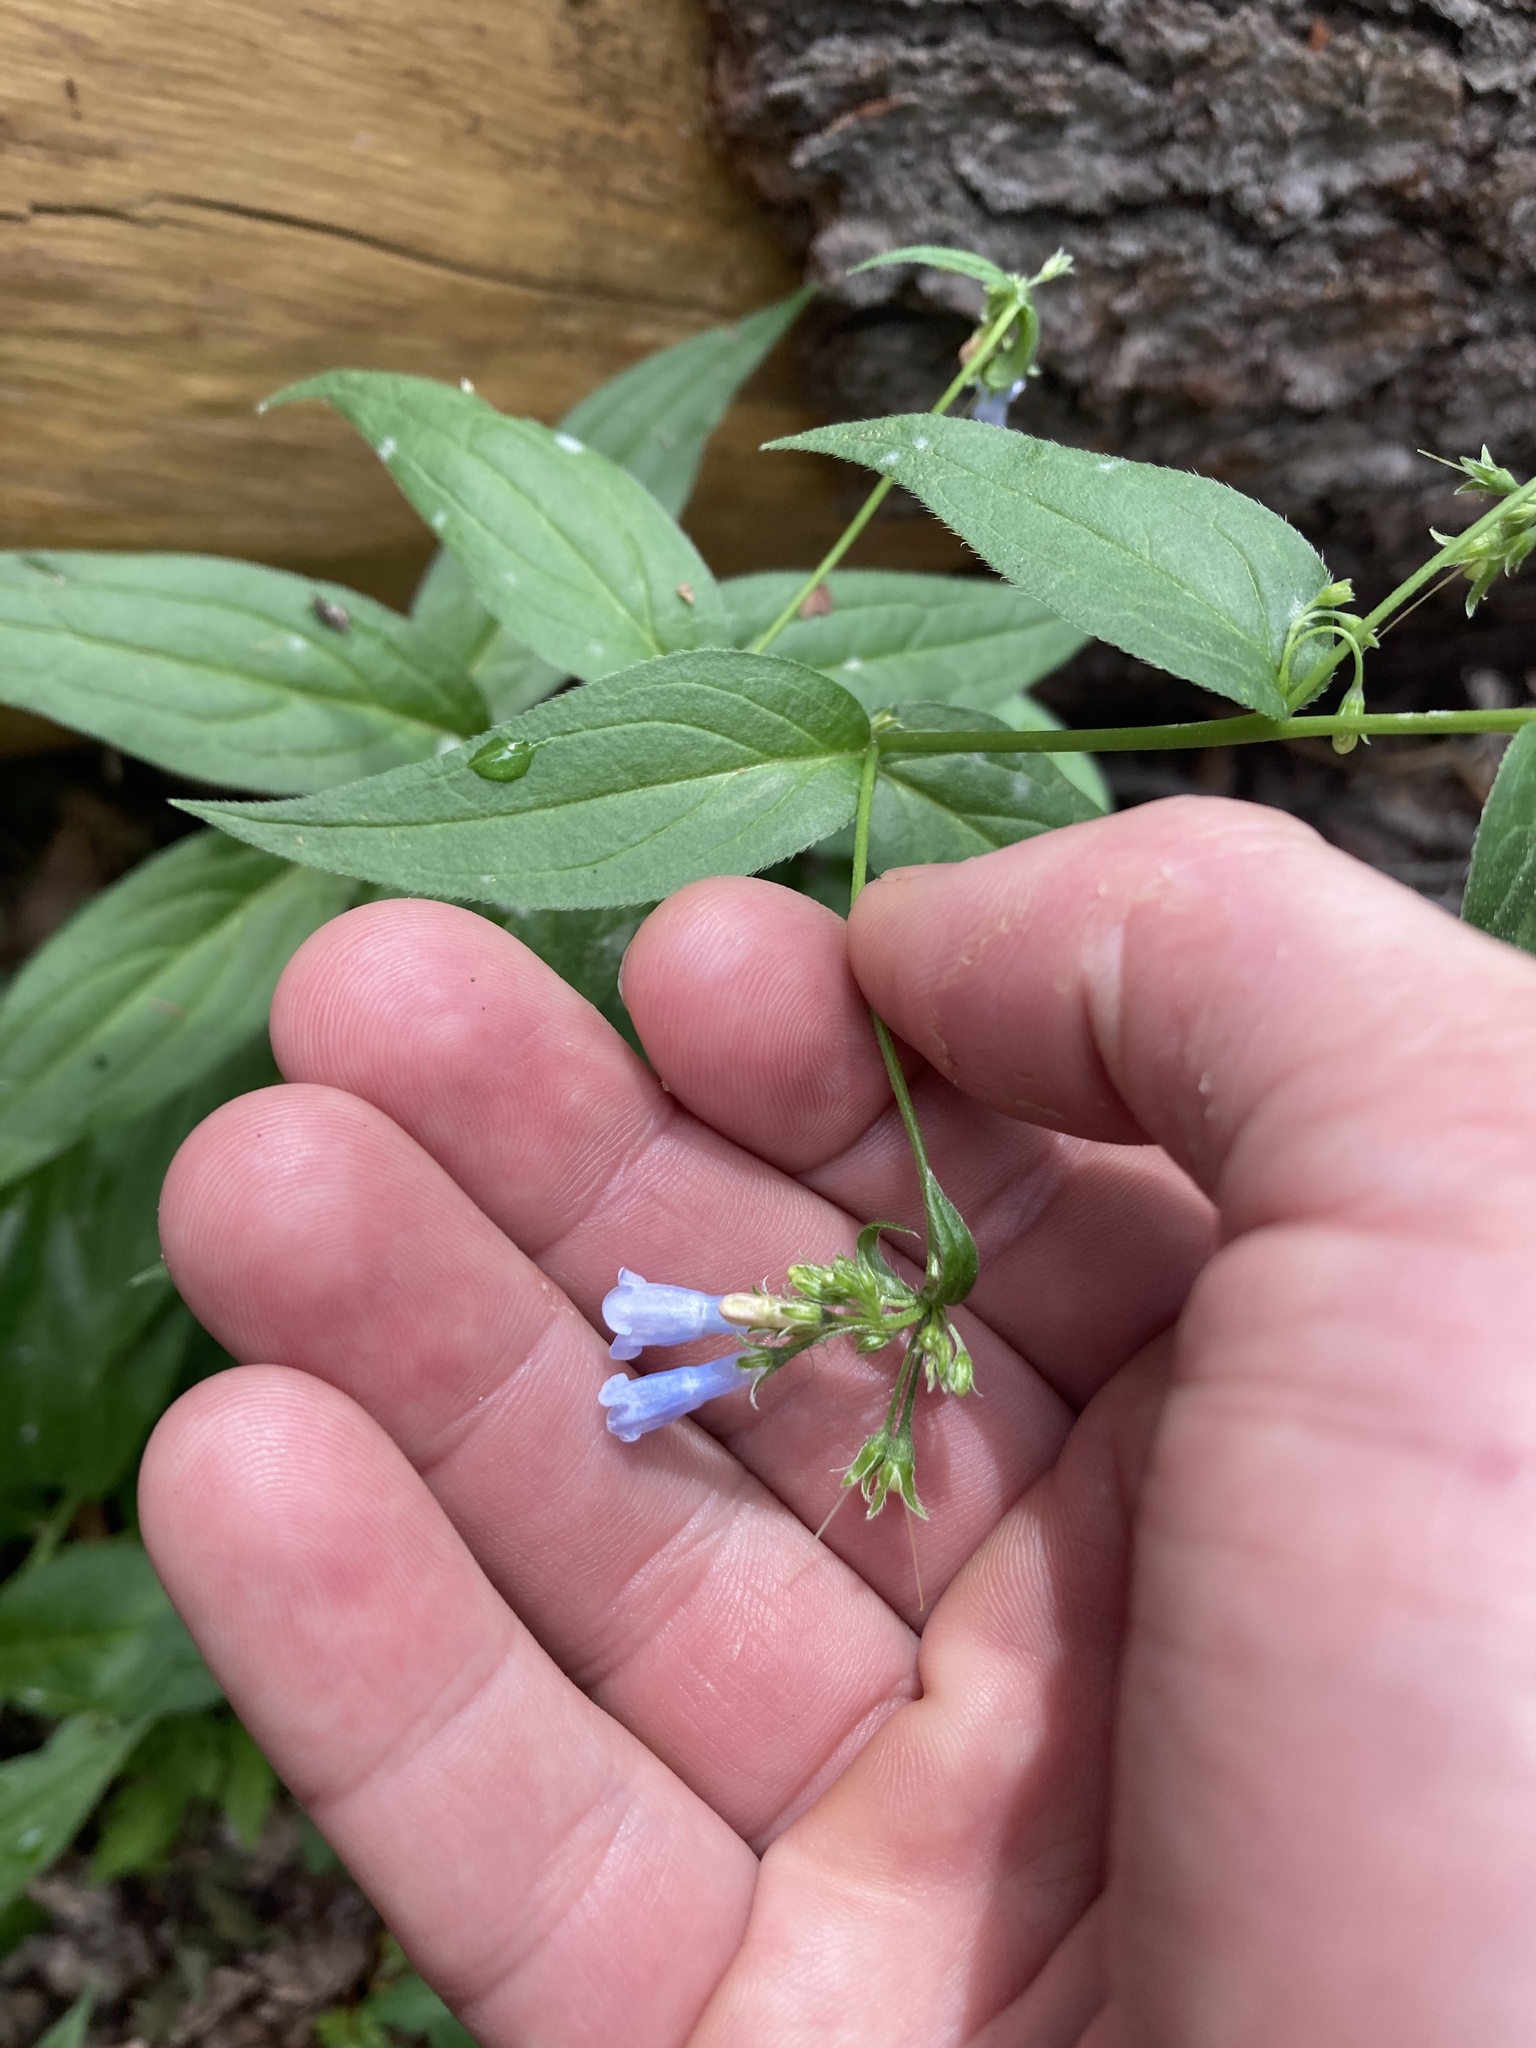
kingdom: Plantae
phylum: Tracheophyta
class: Magnoliopsida
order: Boraginales
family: Boraginaceae
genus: Mertensia
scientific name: Mertensia franciscana
